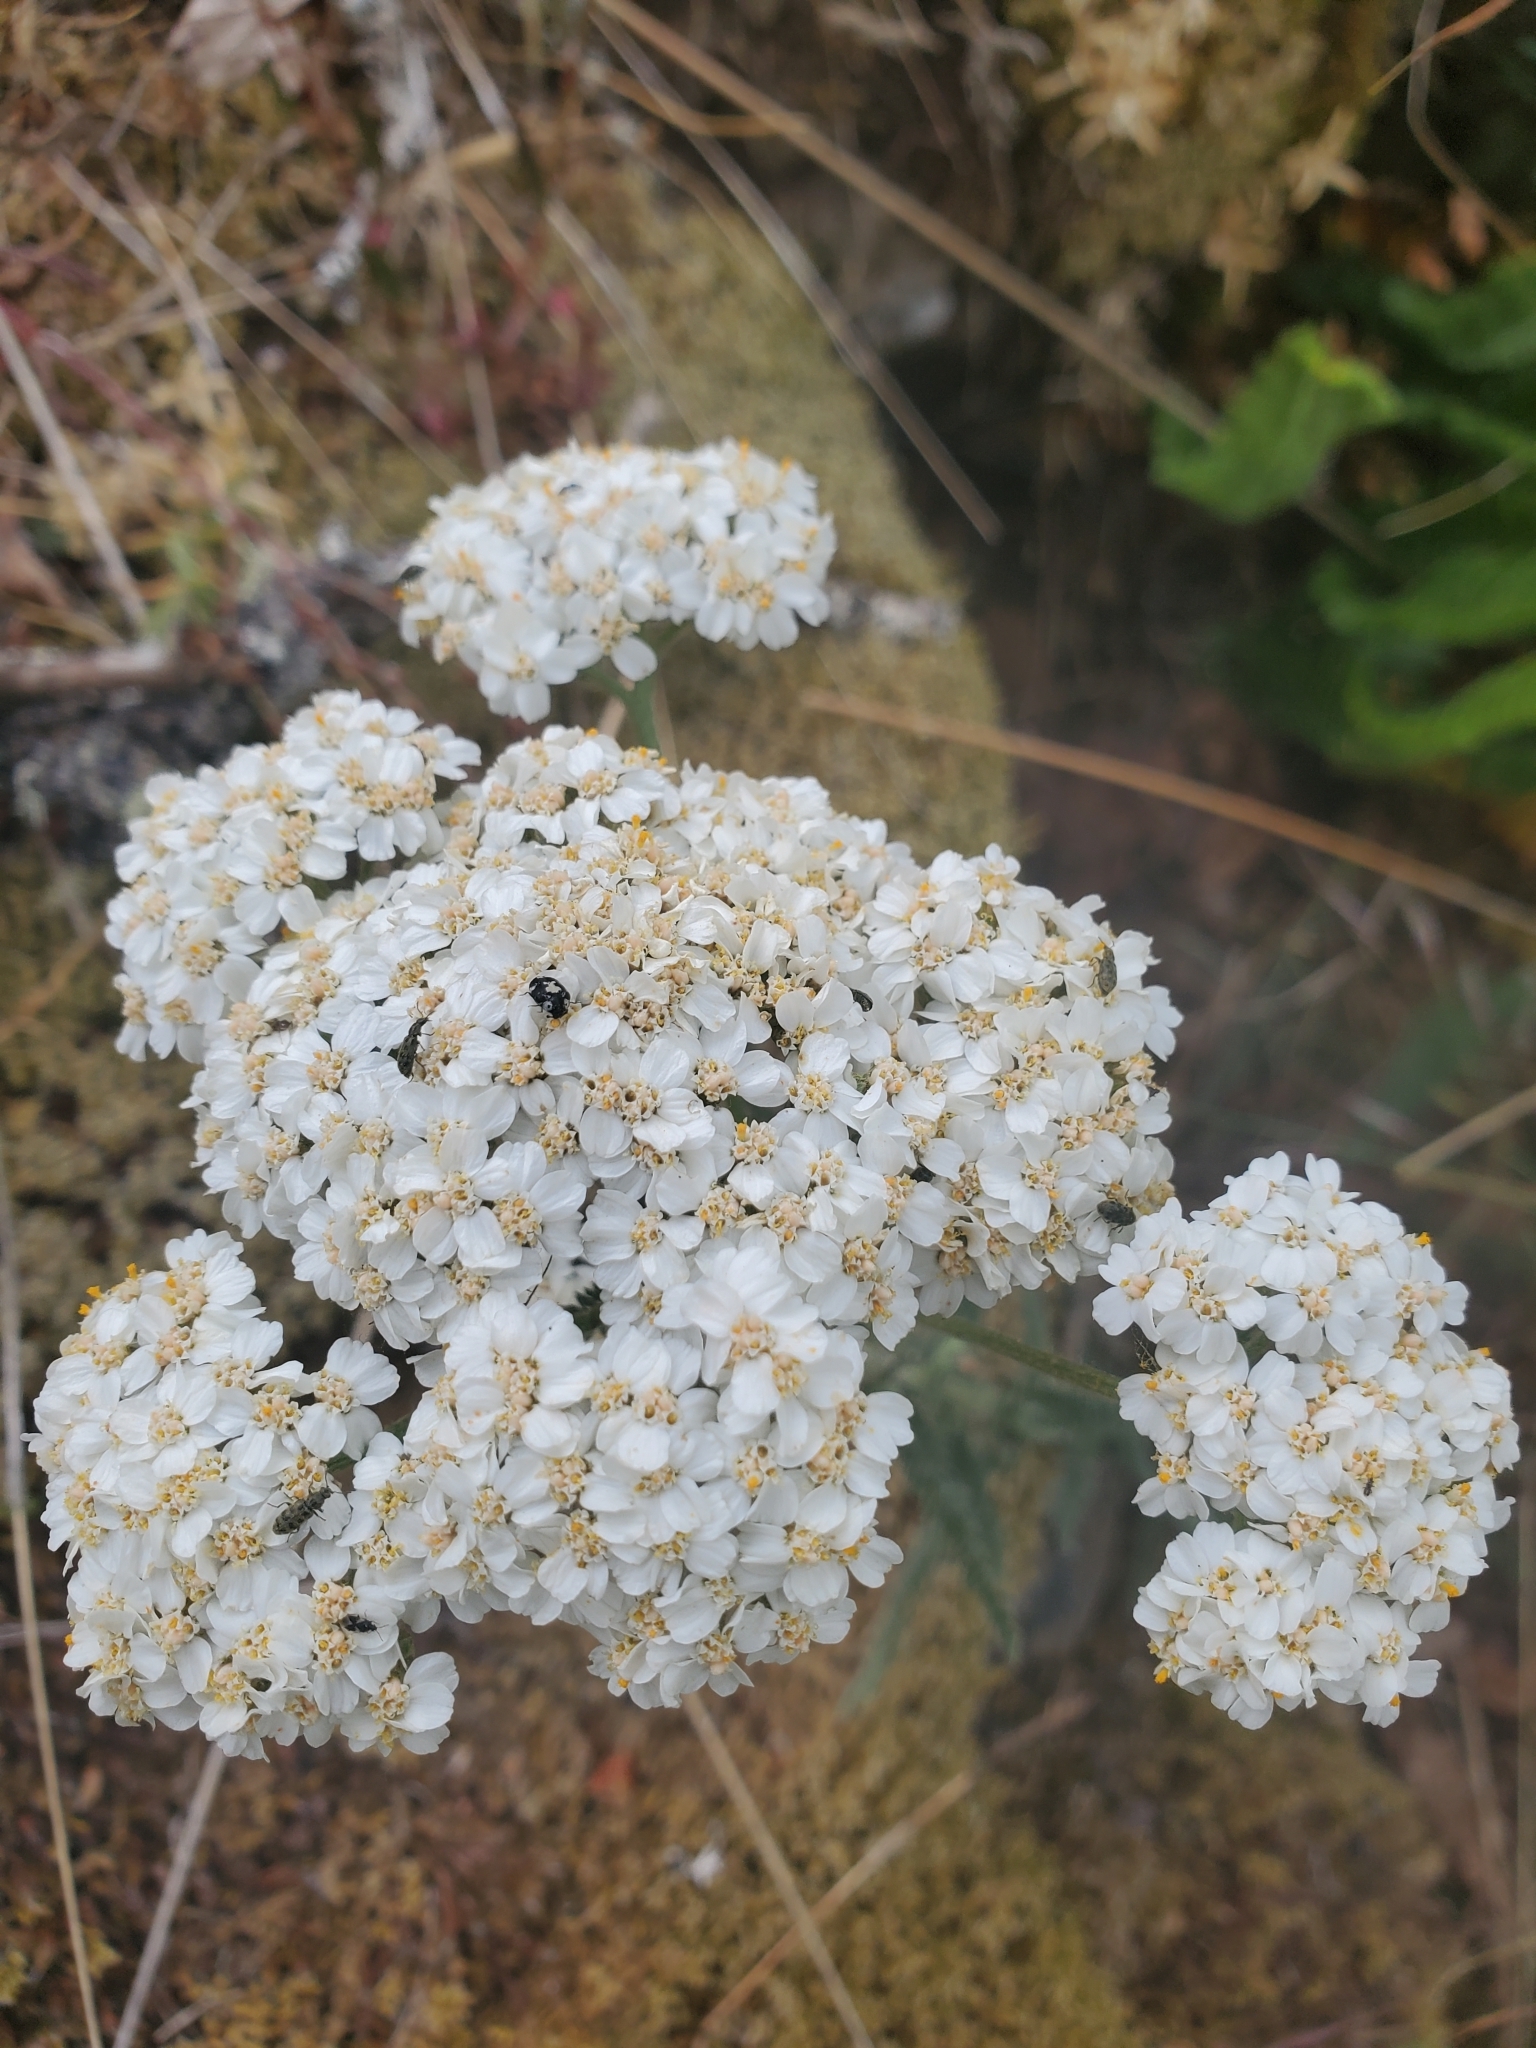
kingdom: Plantae
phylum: Tracheophyta
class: Magnoliopsida
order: Asterales
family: Asteraceae
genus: Achillea
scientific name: Achillea millefolium
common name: Yarrow
